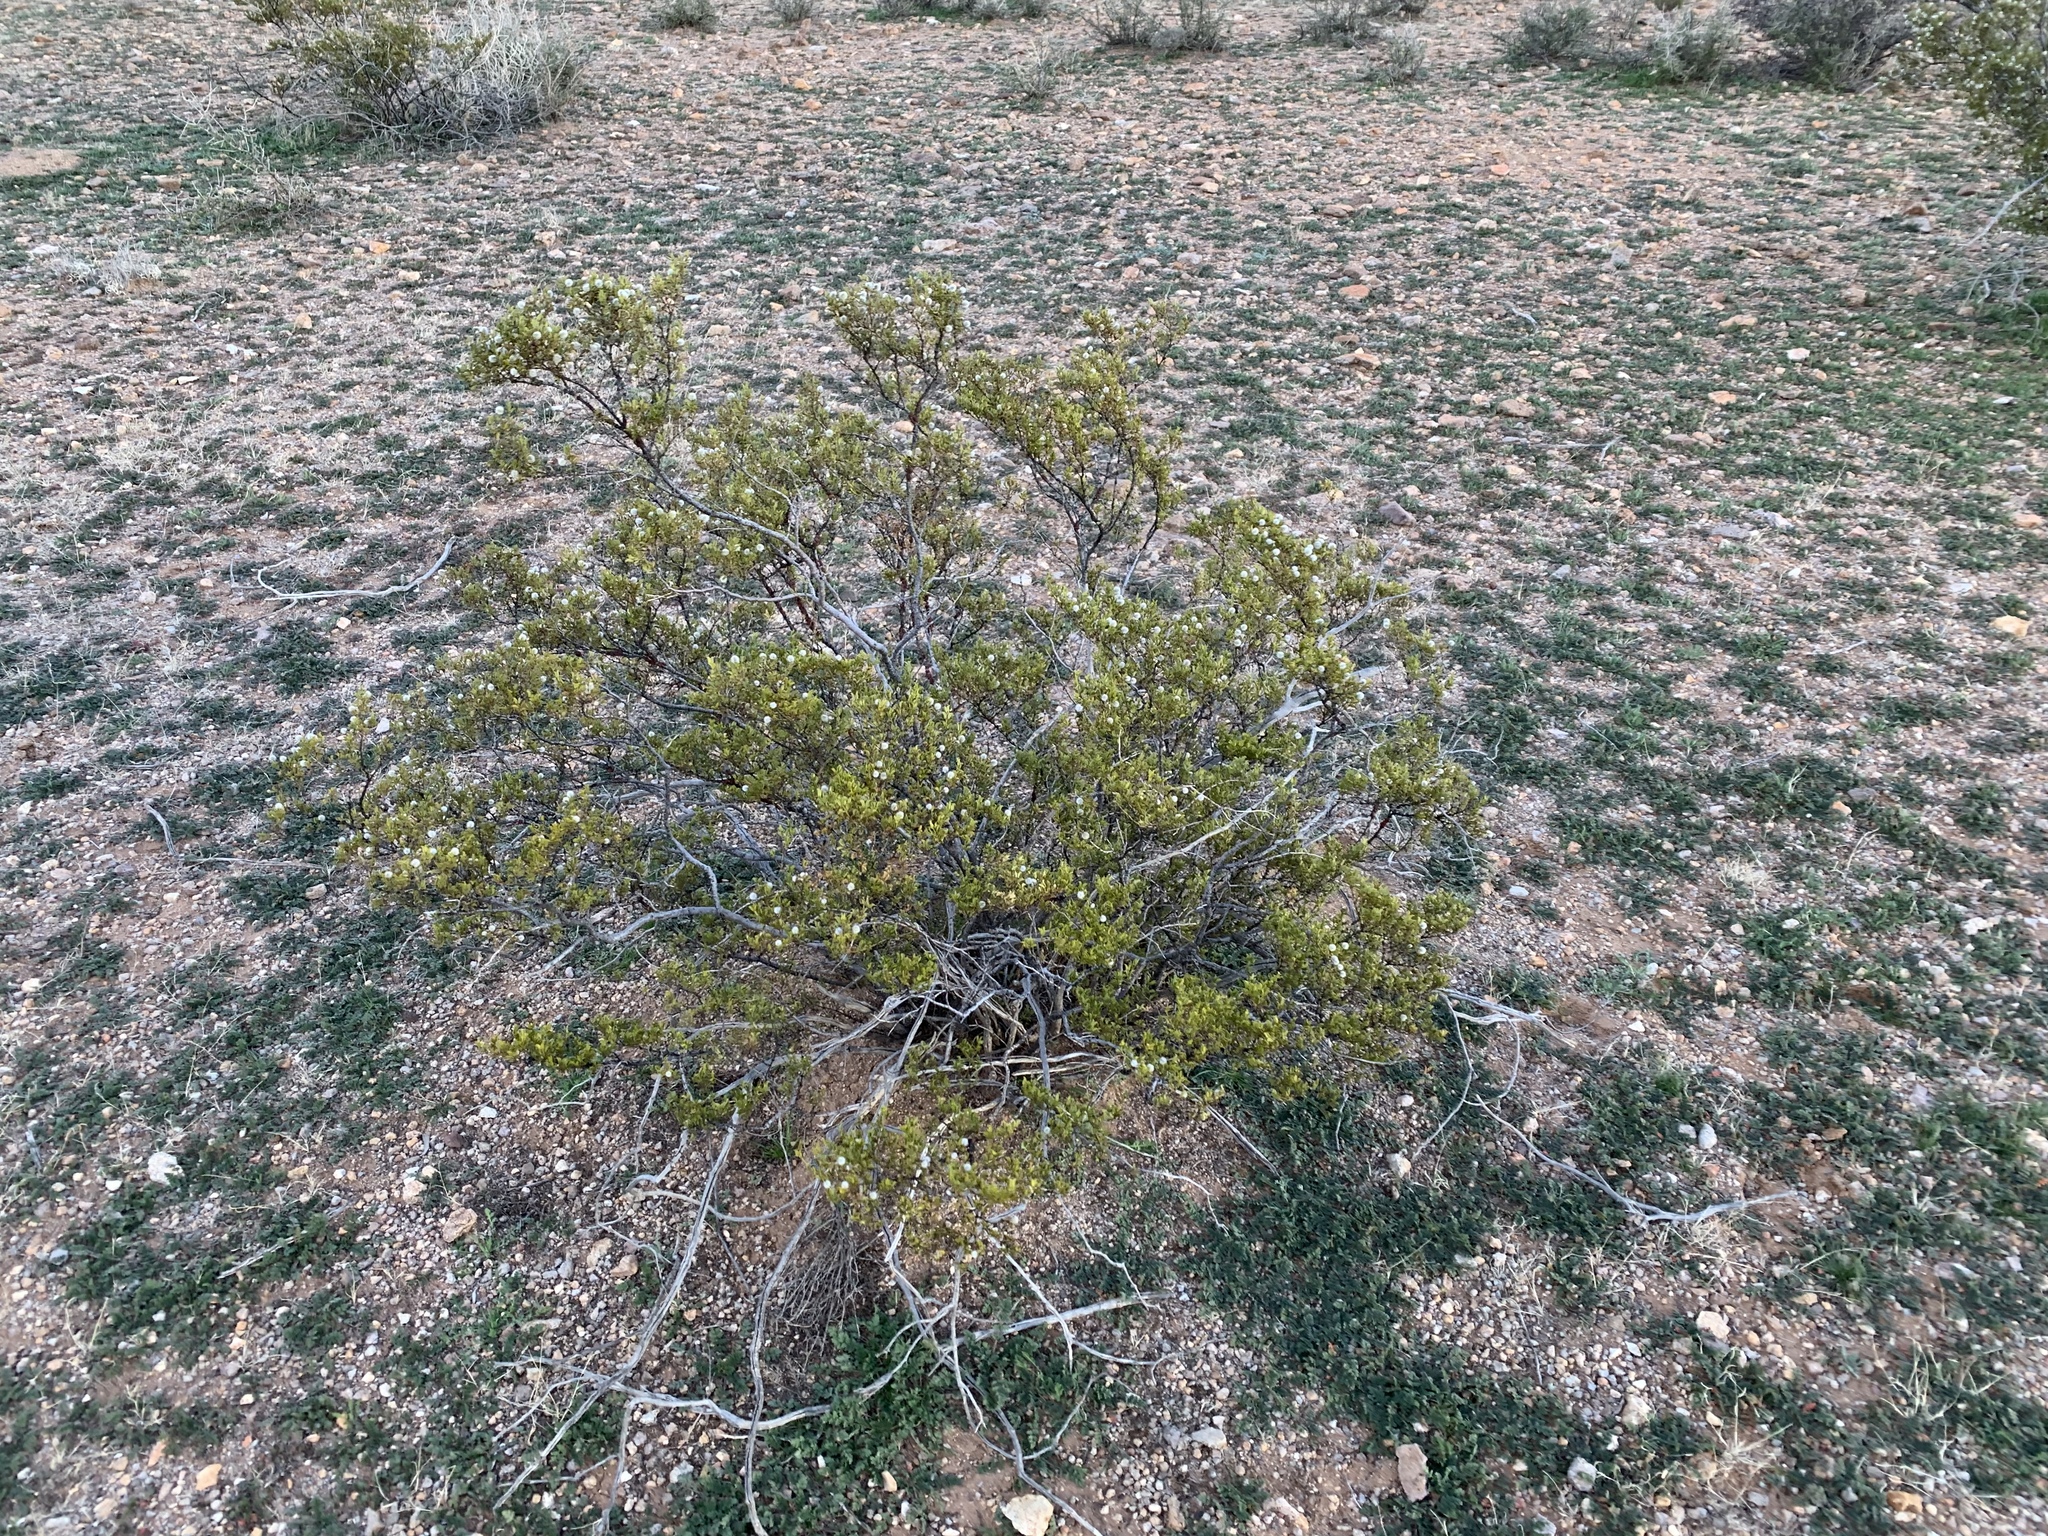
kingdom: Plantae
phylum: Tracheophyta
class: Magnoliopsida
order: Zygophyllales
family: Zygophyllaceae
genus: Larrea
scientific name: Larrea tridentata
